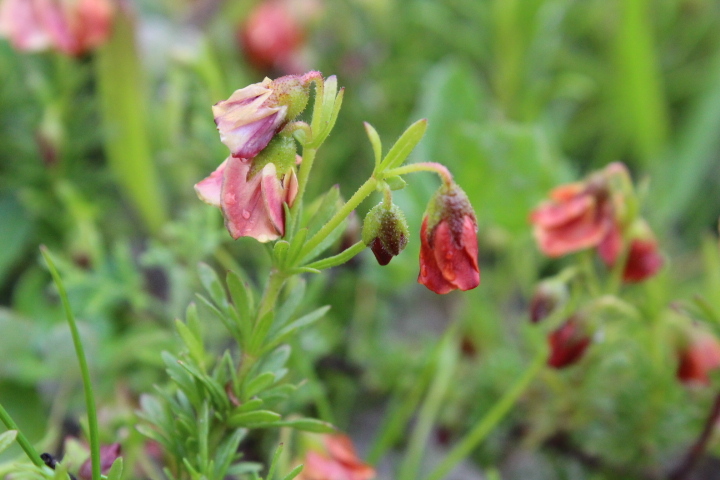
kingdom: Plantae
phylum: Tracheophyta
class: Magnoliopsida
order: Malvales
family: Malvaceae
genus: Hermannia
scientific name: Hermannia
